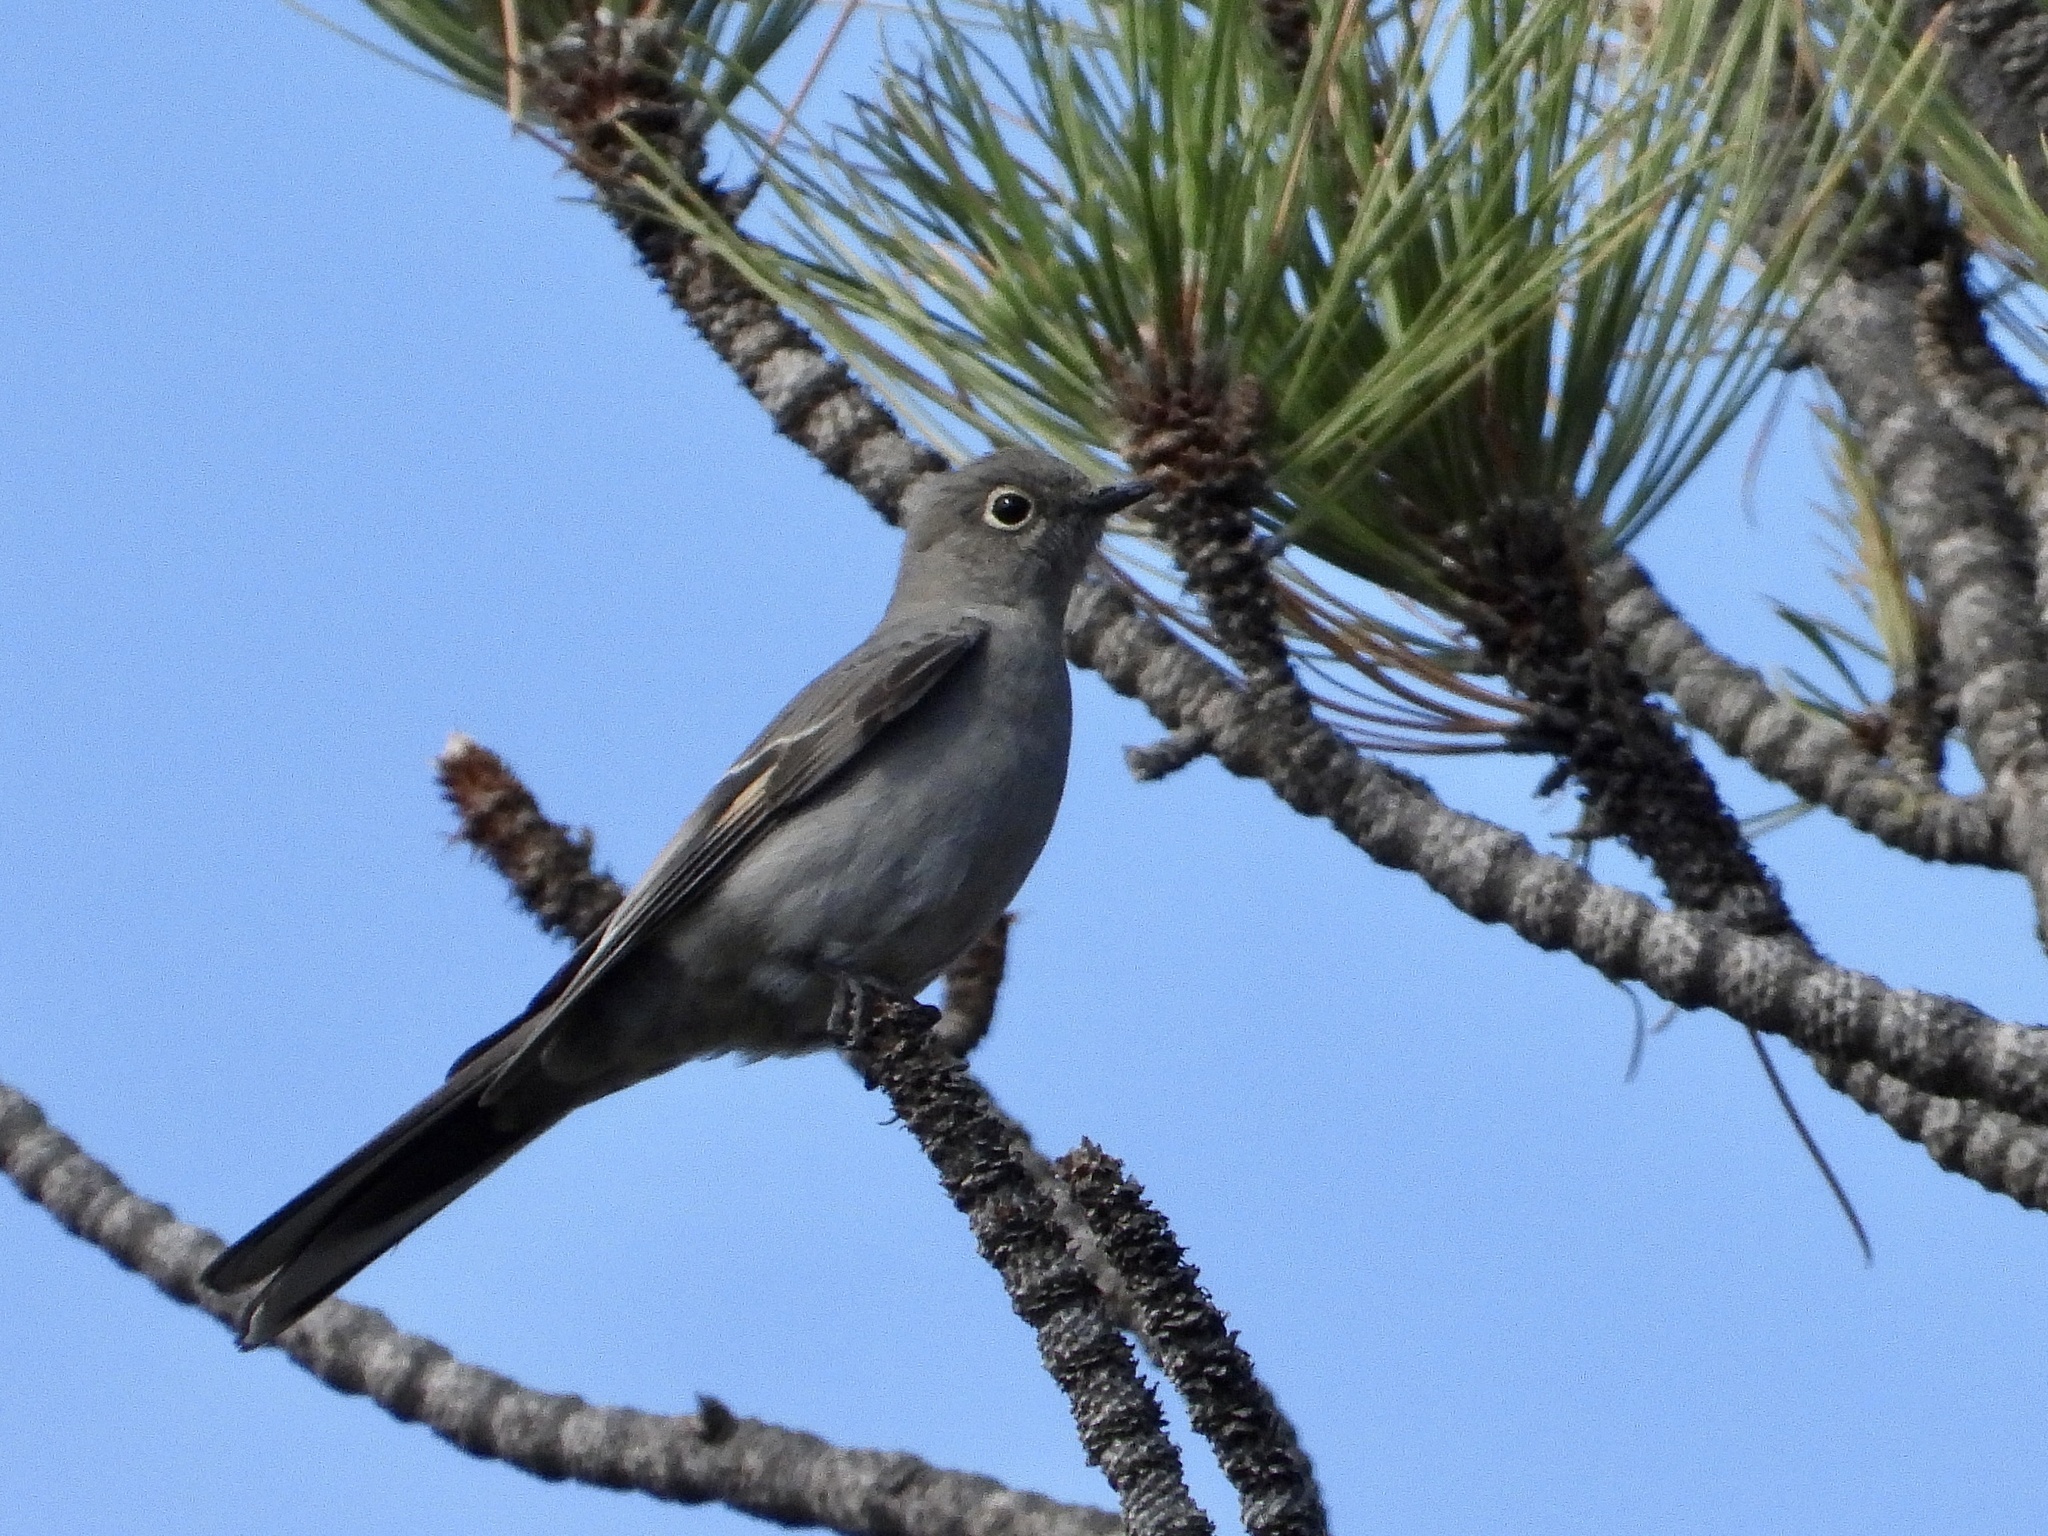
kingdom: Animalia
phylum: Chordata
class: Aves
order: Passeriformes
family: Turdidae
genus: Myadestes
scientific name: Myadestes townsendi
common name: Townsend's solitaire
